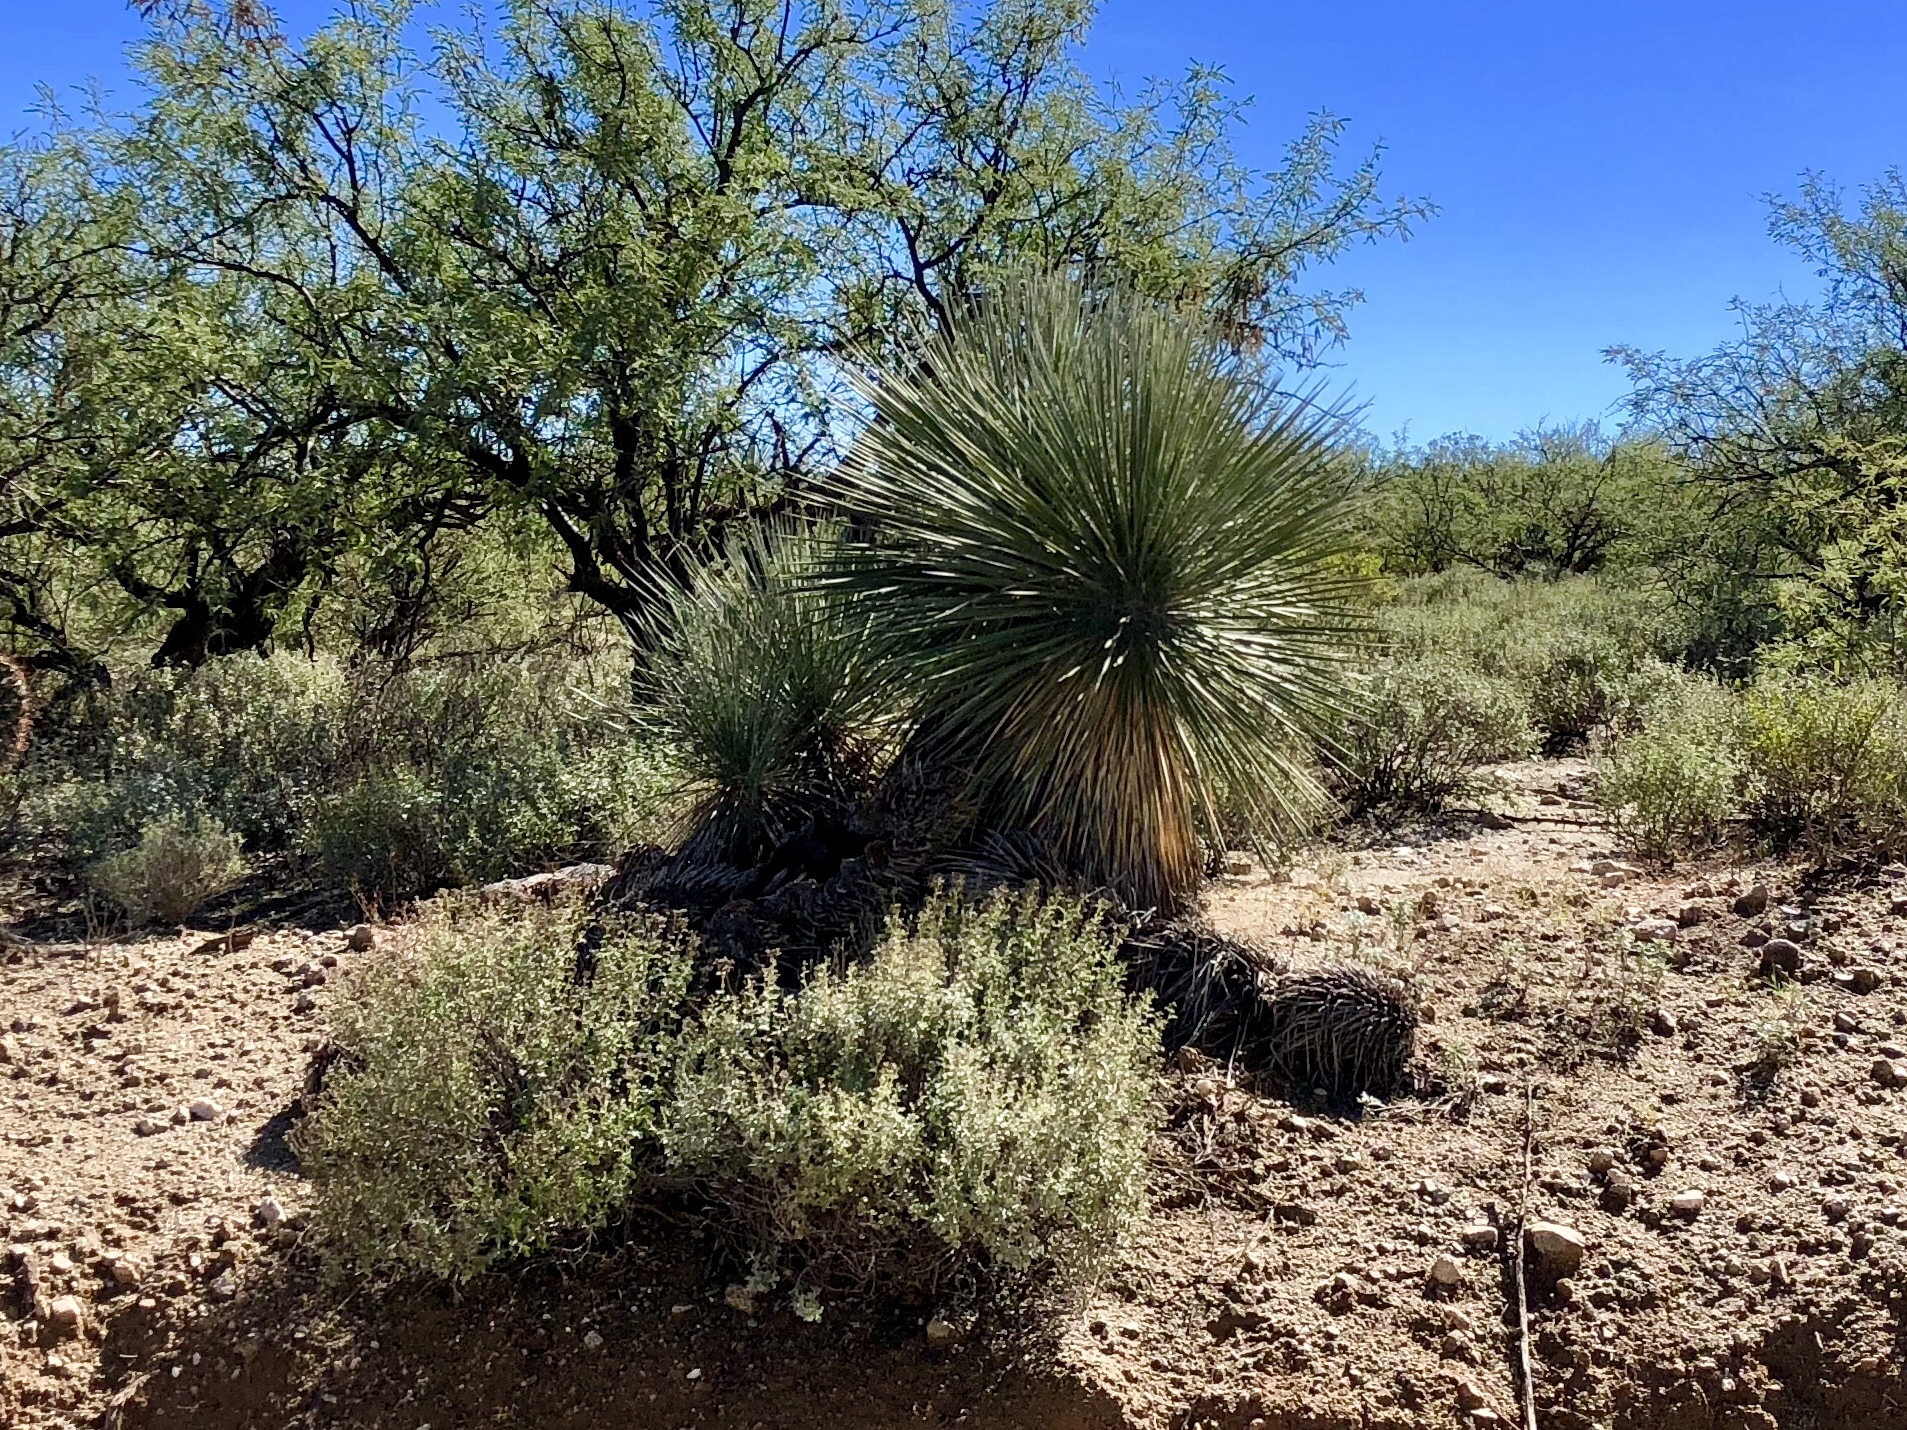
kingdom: Plantae
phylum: Tracheophyta
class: Liliopsida
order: Asparagales
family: Asparagaceae
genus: Yucca
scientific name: Yucca elata
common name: Palmella
